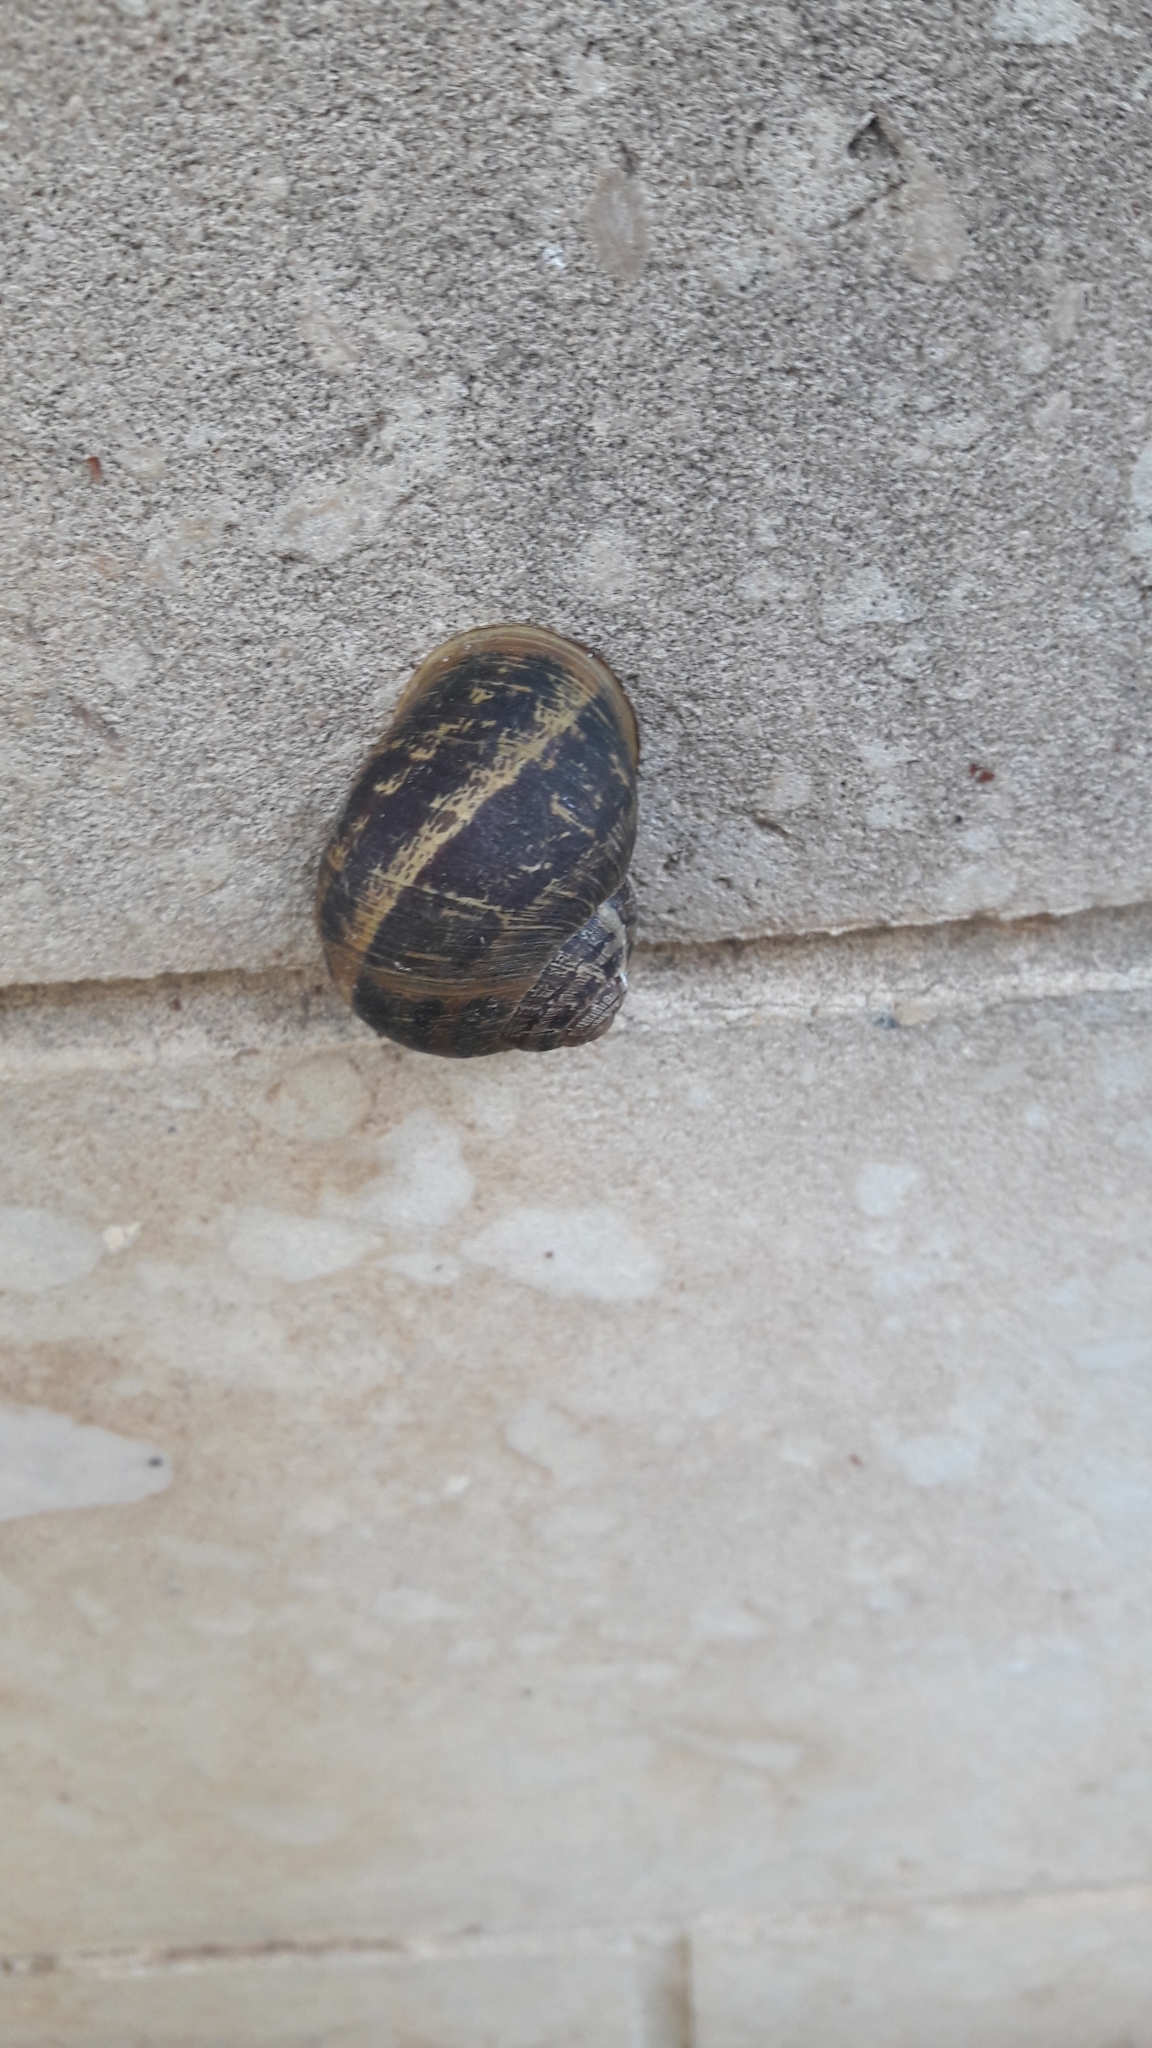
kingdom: Animalia
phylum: Mollusca
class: Gastropoda
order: Stylommatophora
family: Helicidae
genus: Cornu
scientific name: Cornu aspersum
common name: Brown garden snail
